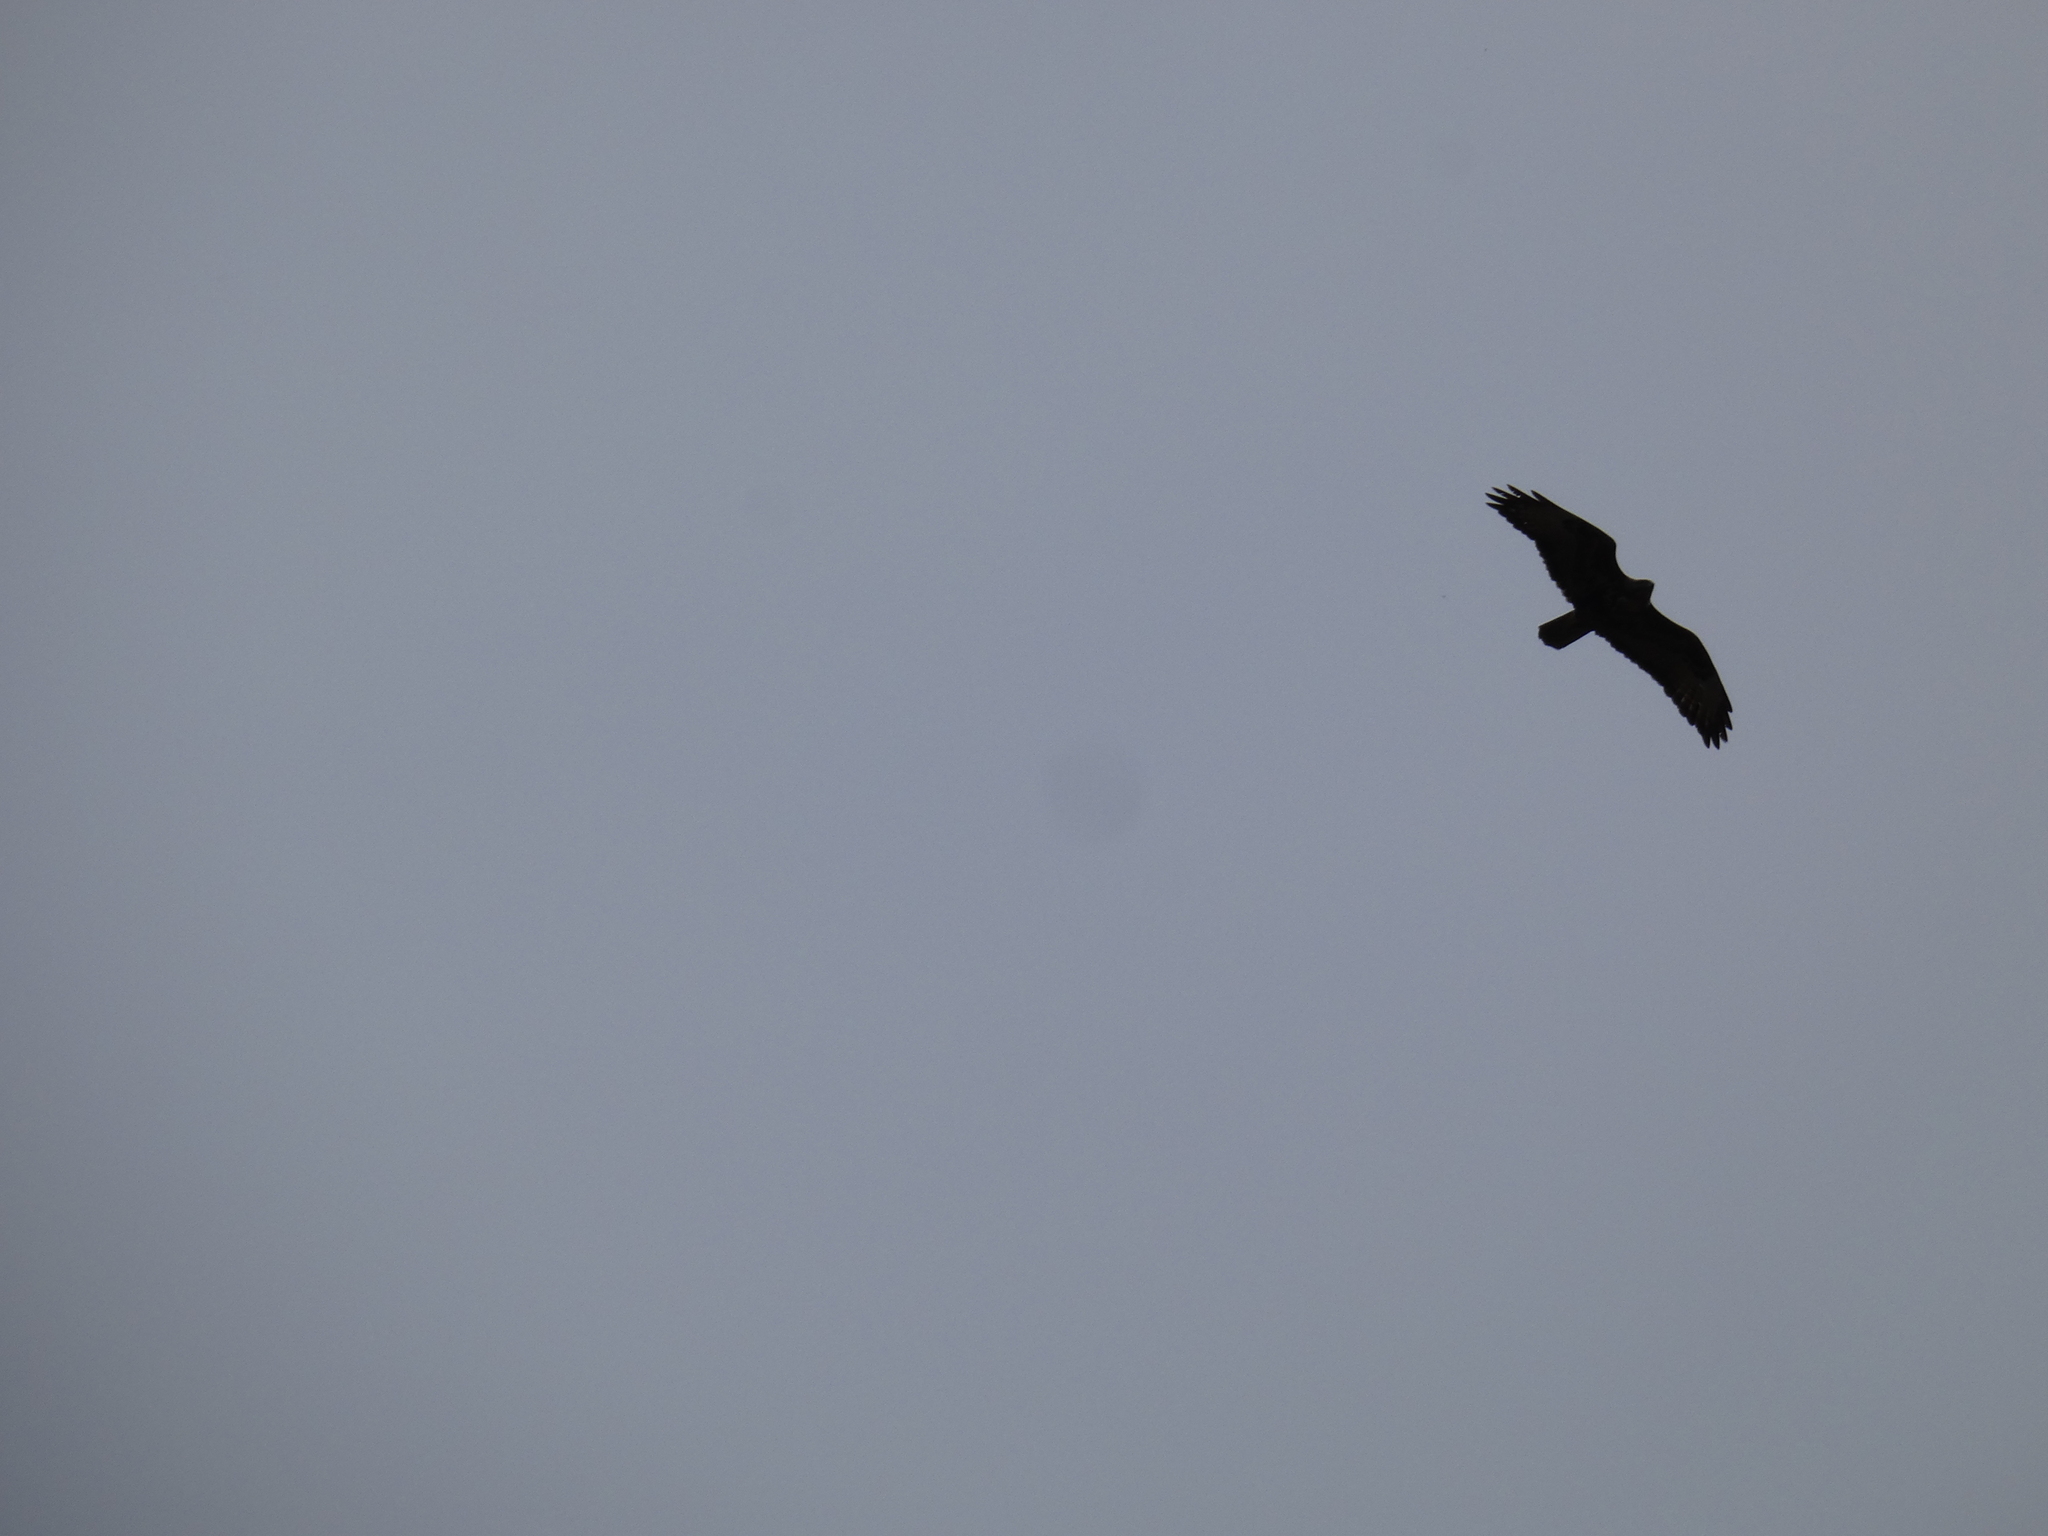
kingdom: Animalia
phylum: Chordata
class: Aves
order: Accipitriformes
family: Accipitridae
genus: Buteo
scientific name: Buteo buteo
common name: Common buzzard
